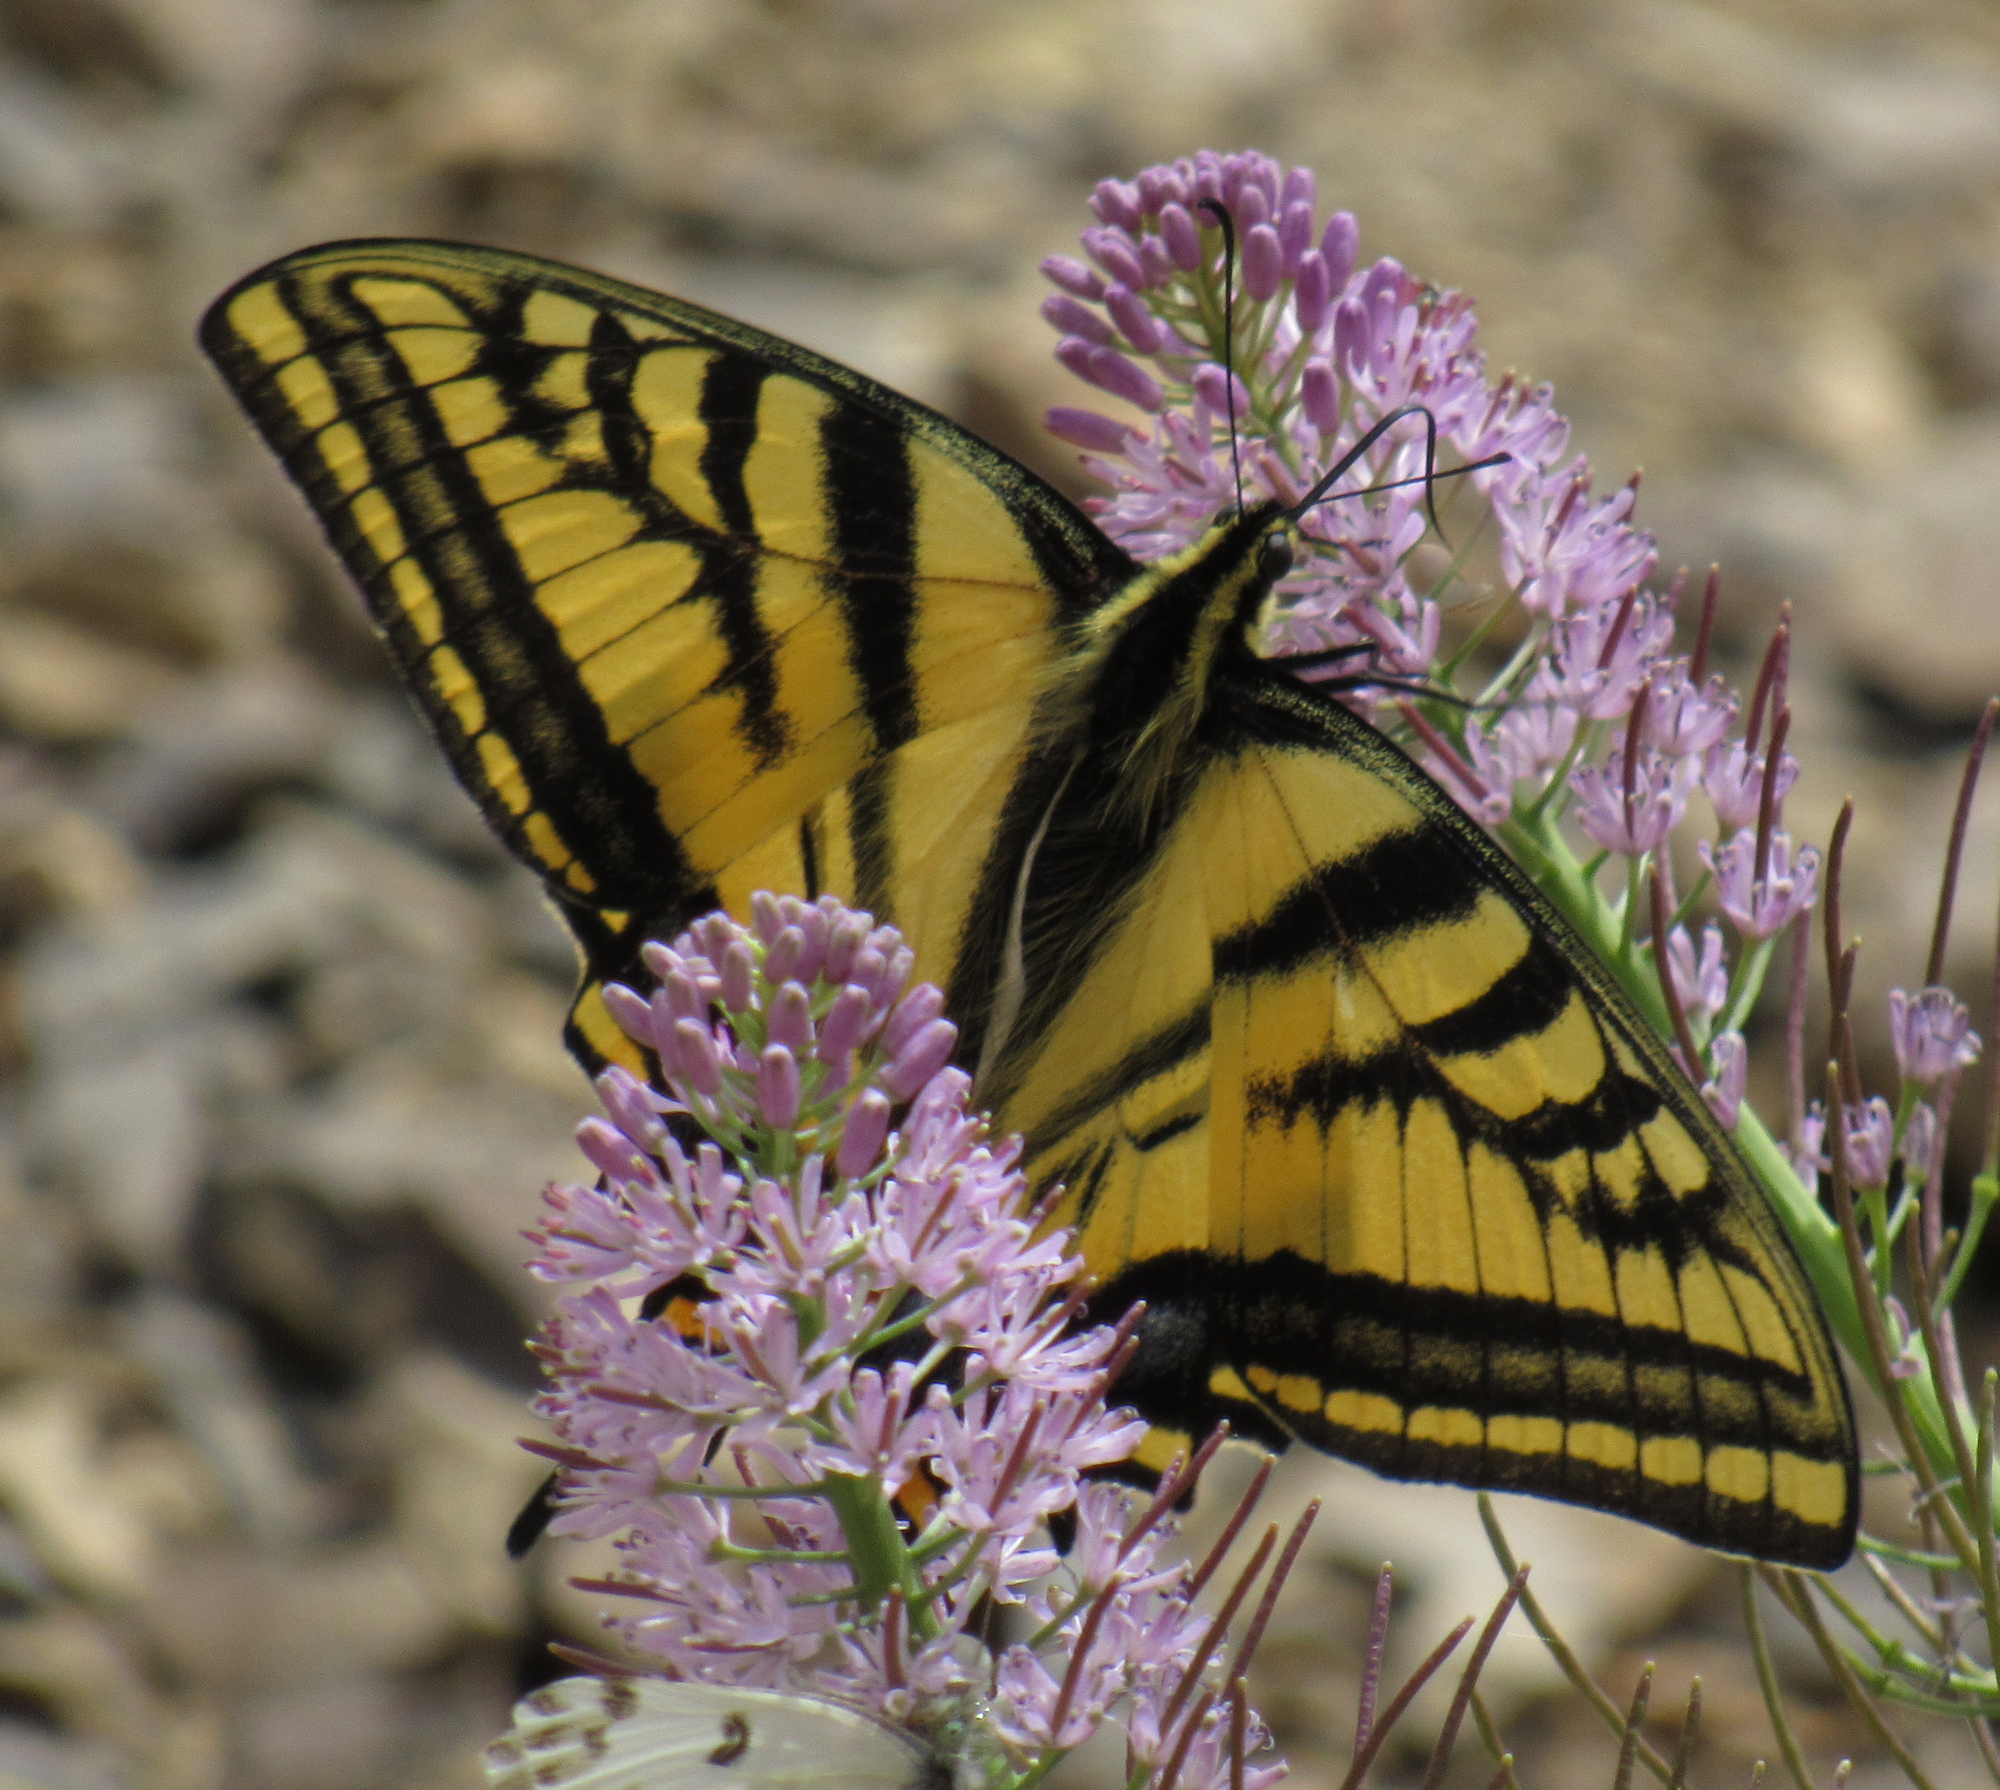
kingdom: Animalia
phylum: Arthropoda
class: Insecta
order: Lepidoptera
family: Papilionidae
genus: Papilio
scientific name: Papilio multicaudata
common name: Two-tailed tiger swallowtail
